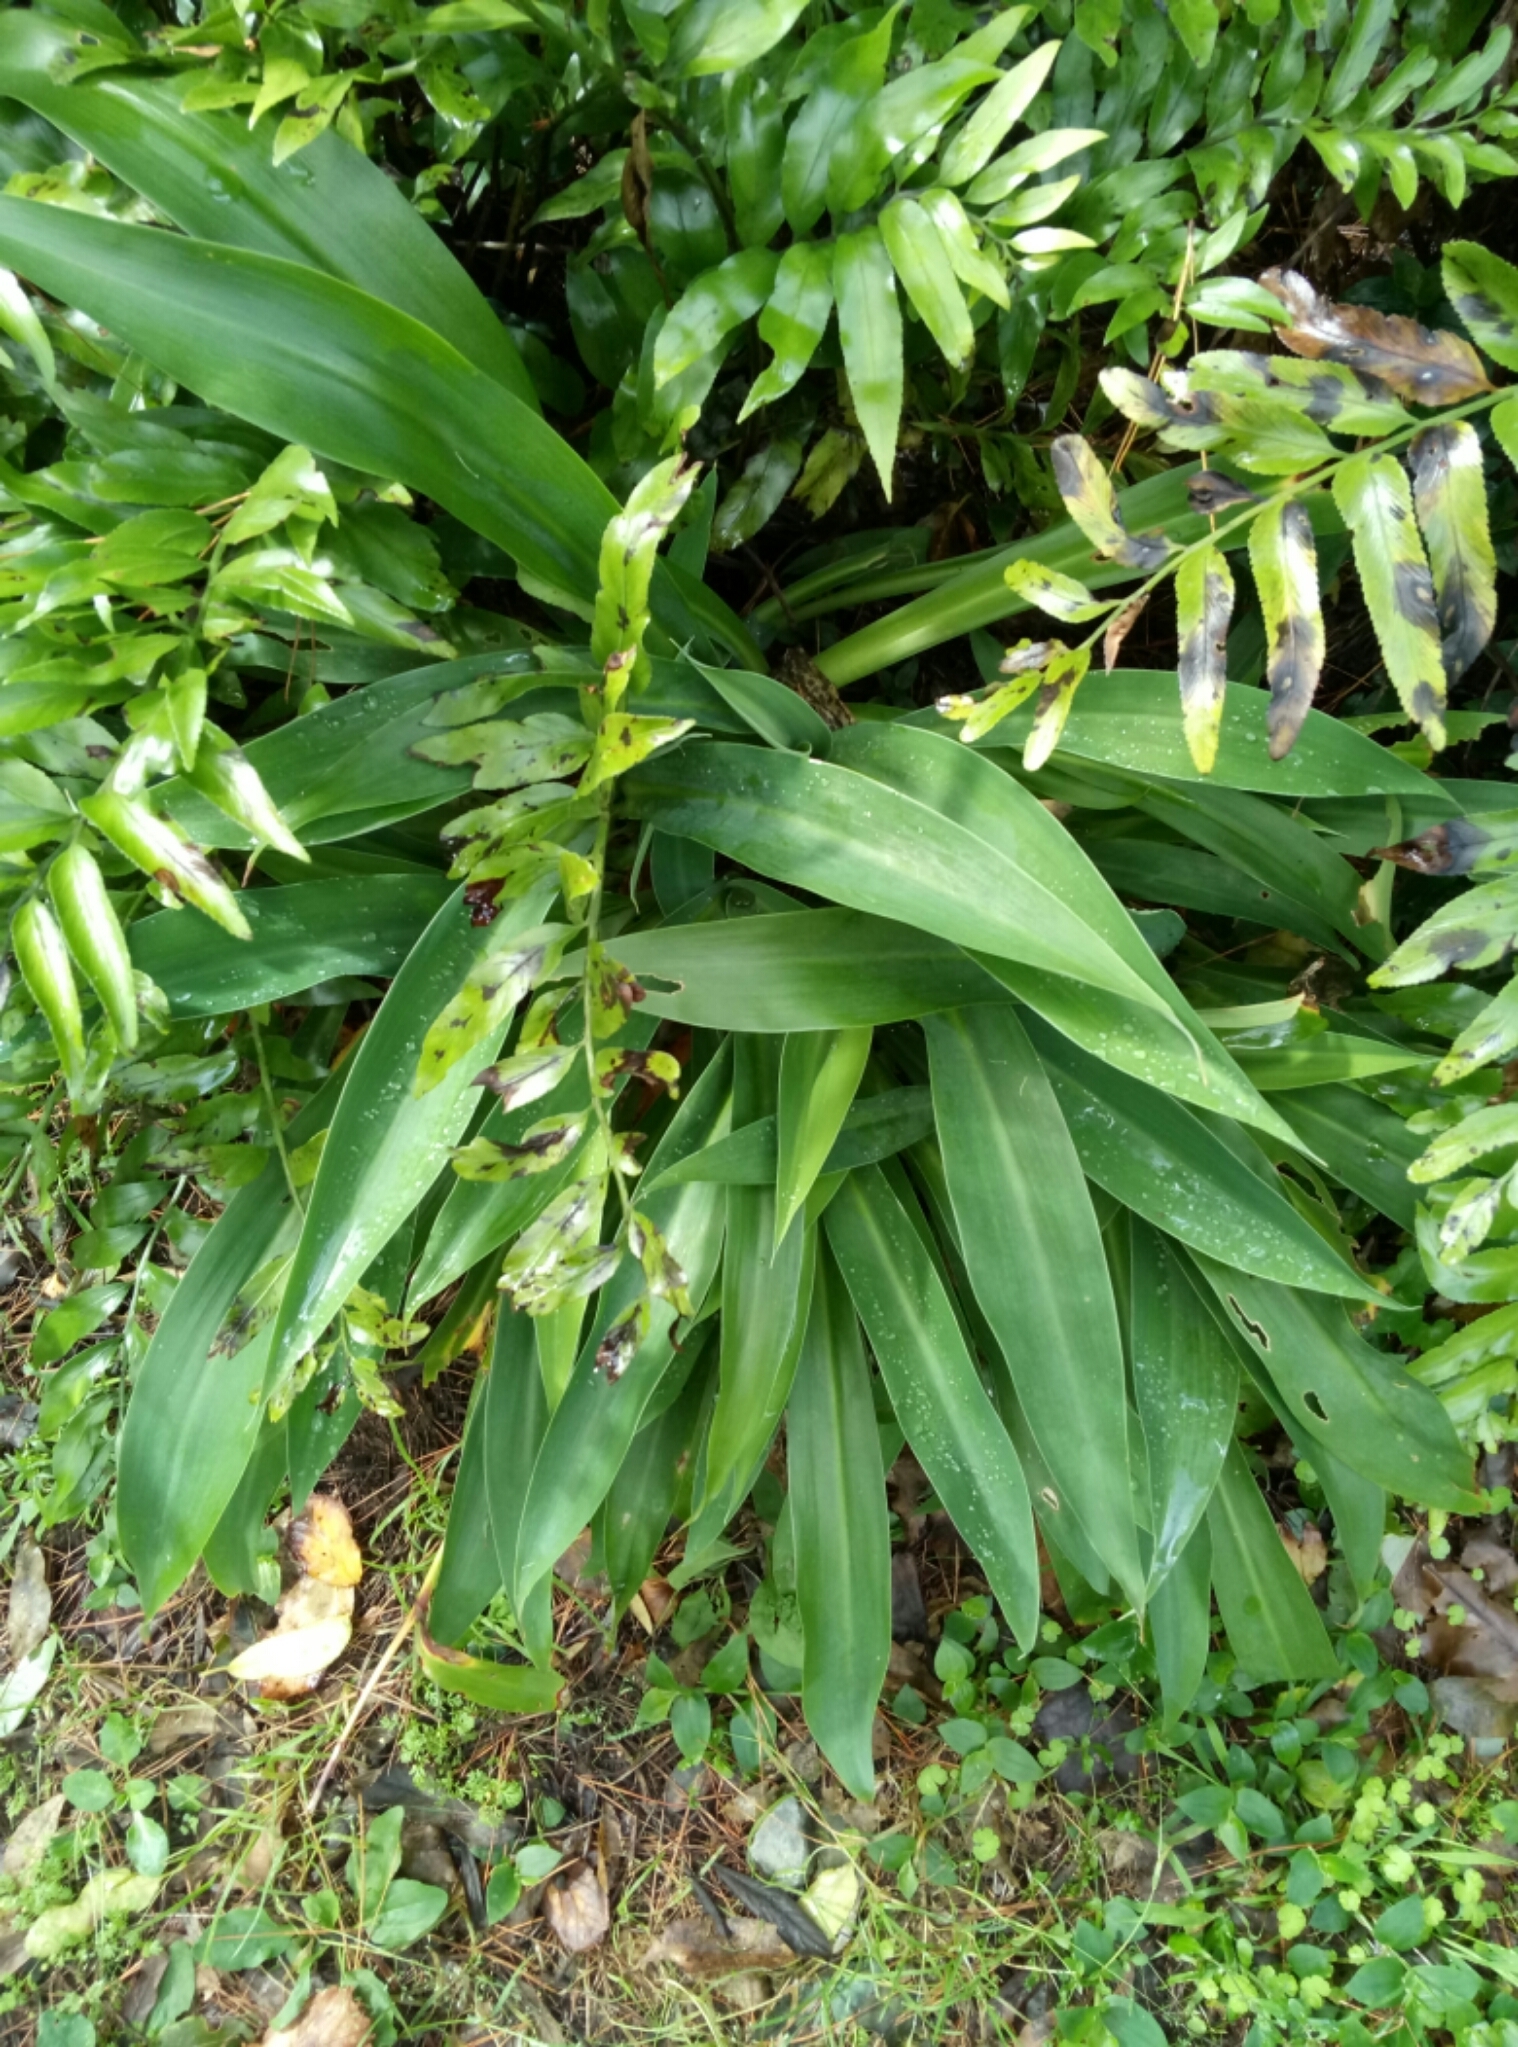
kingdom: Plantae
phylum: Tracheophyta
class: Liliopsida
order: Asparagales
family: Asparagaceae
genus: Arthropodium
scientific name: Arthropodium cirratum
